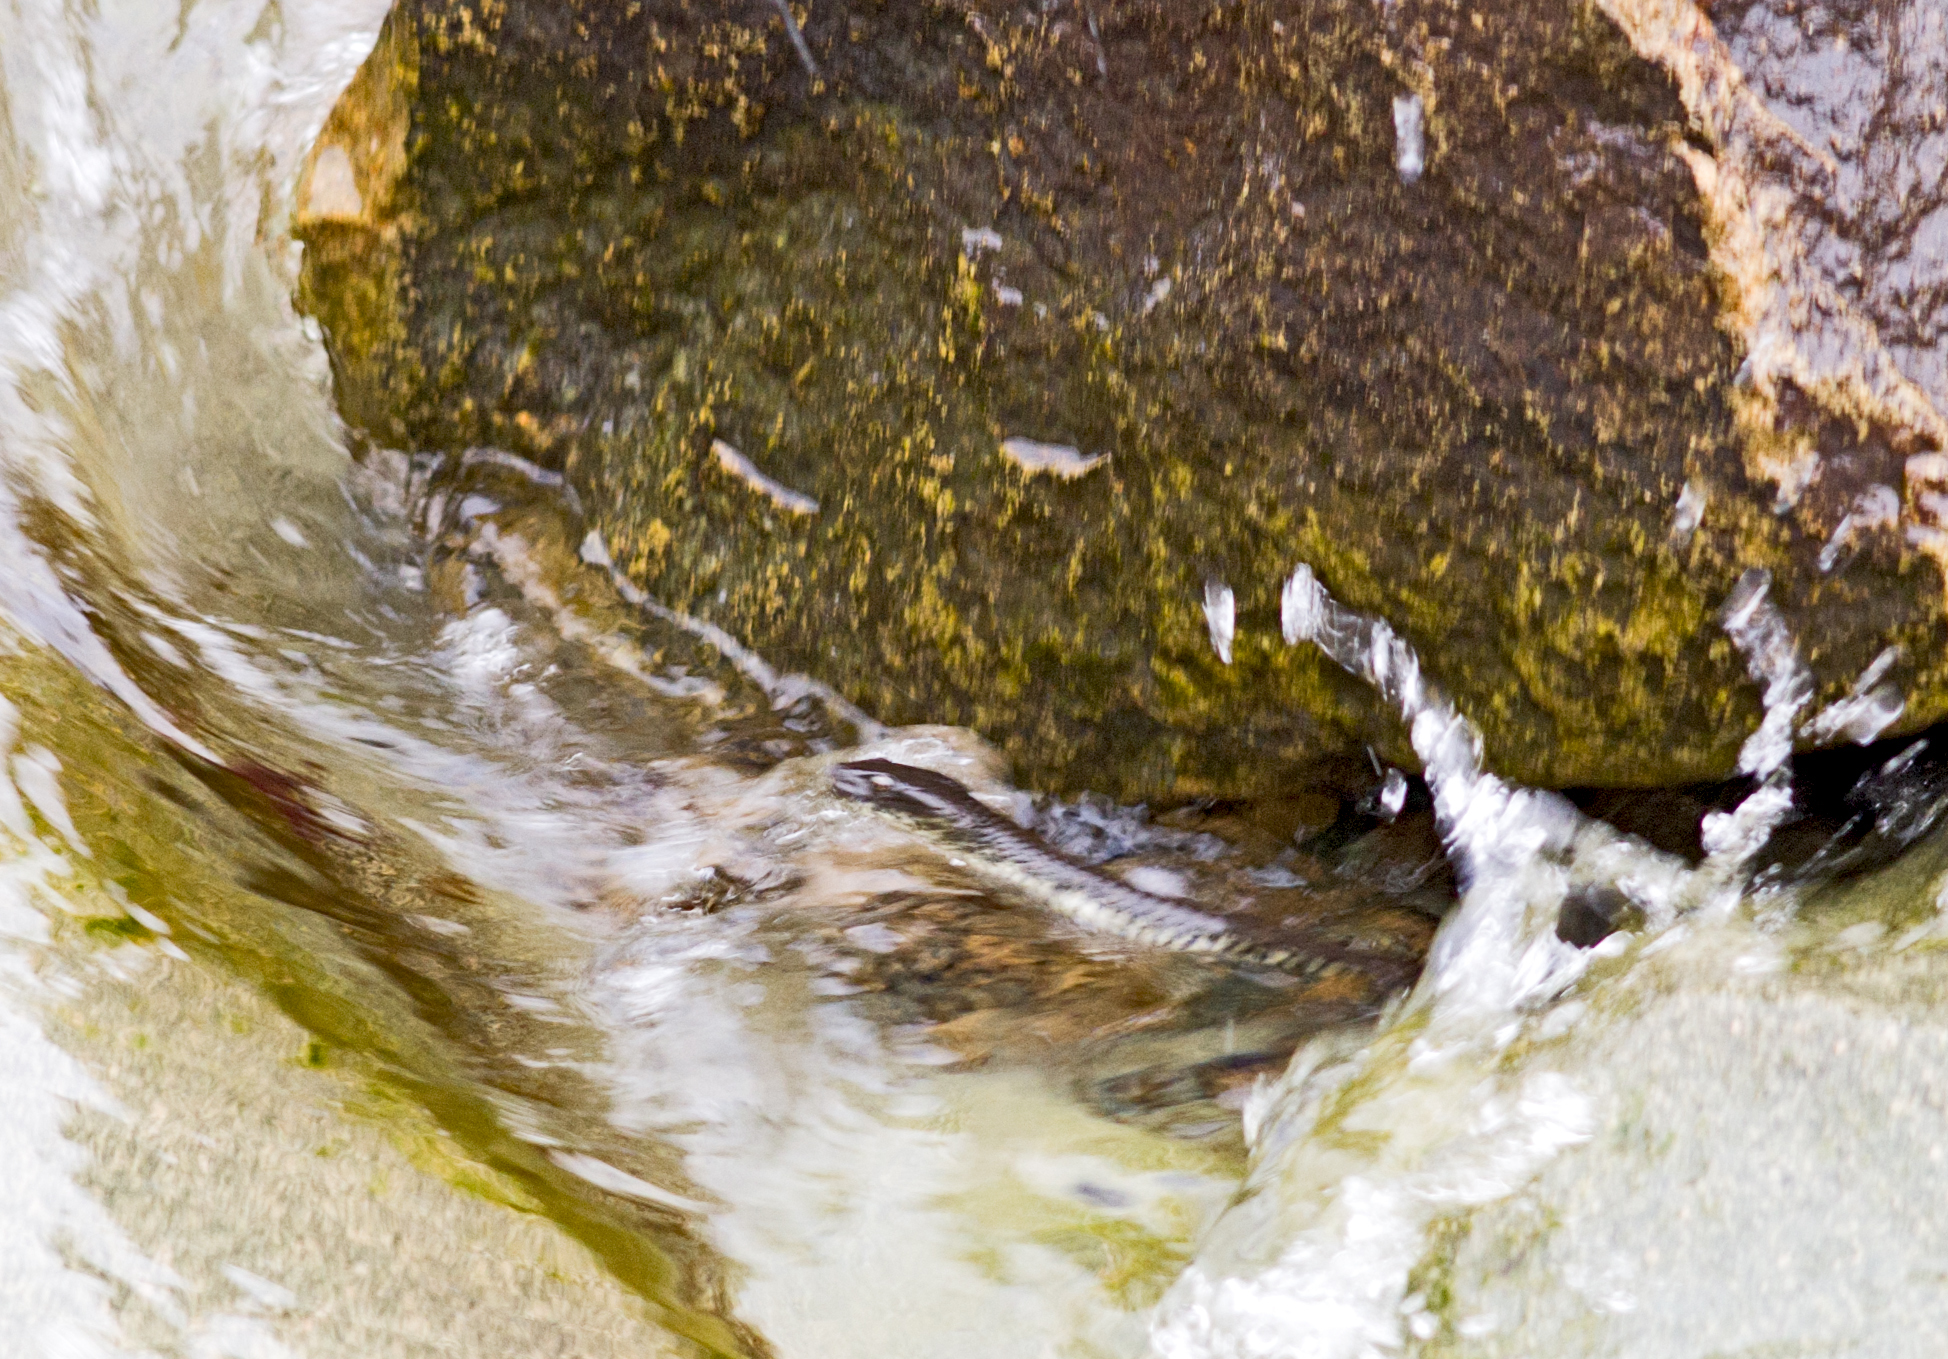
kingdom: Animalia
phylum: Chordata
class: Squamata
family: Colubridae
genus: Natrix
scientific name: Natrix tessellata
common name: Dice snake
